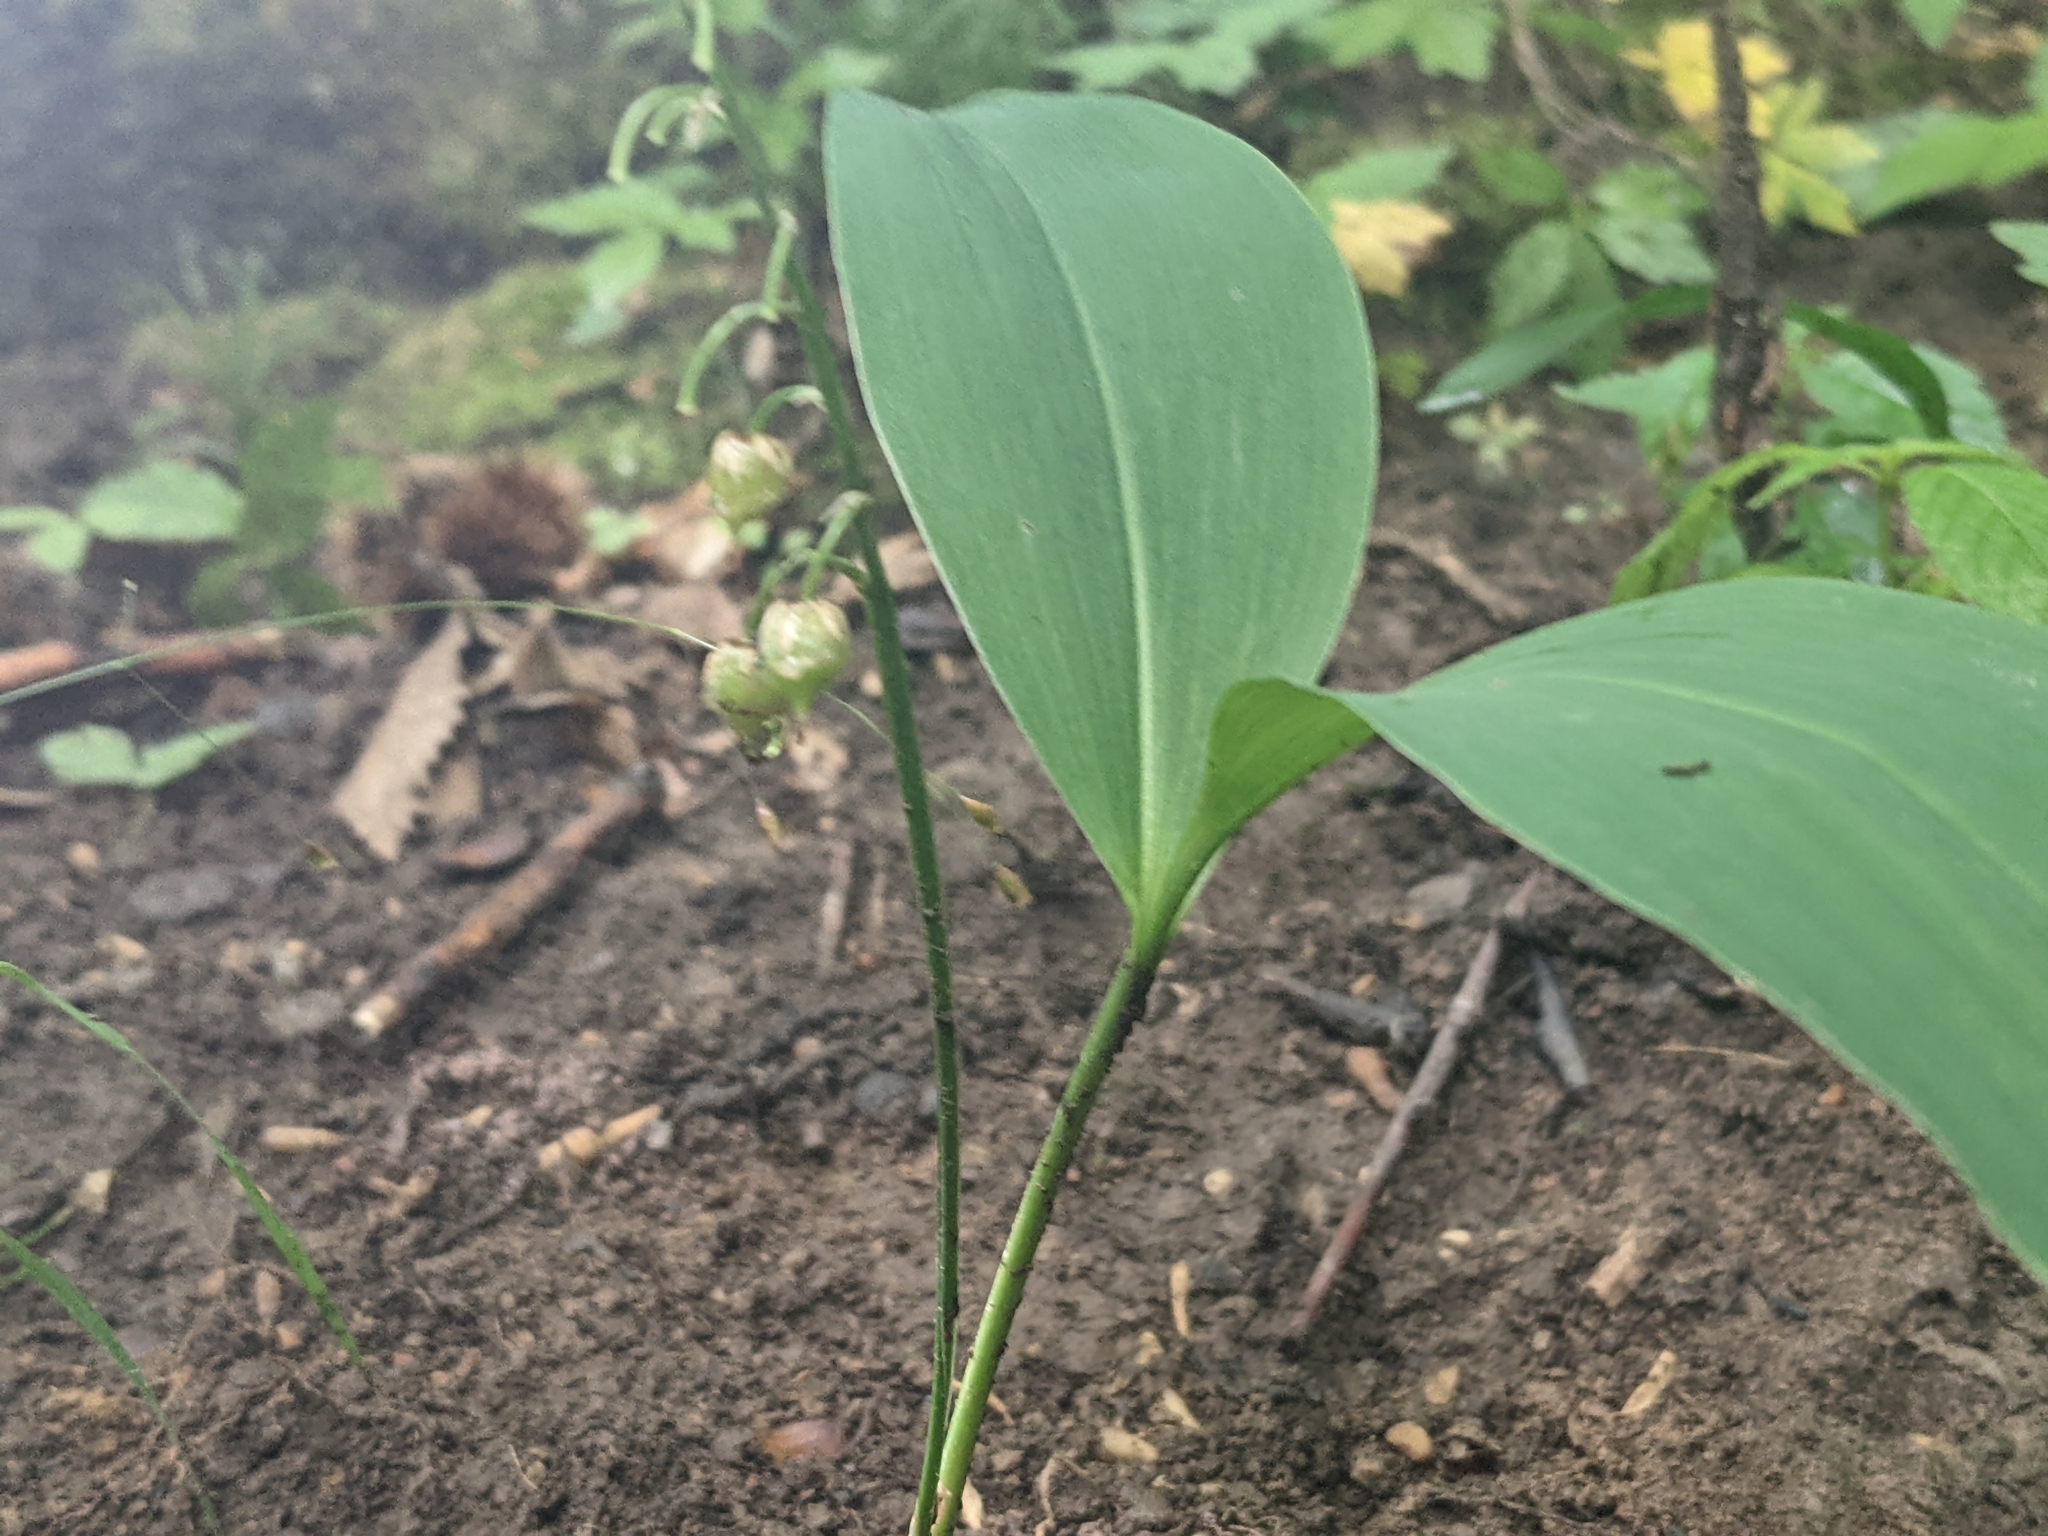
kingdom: Plantae
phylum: Tracheophyta
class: Liliopsida
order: Asparagales
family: Asparagaceae
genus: Convallaria
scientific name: Convallaria majalis
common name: Lily-of-the-valley
